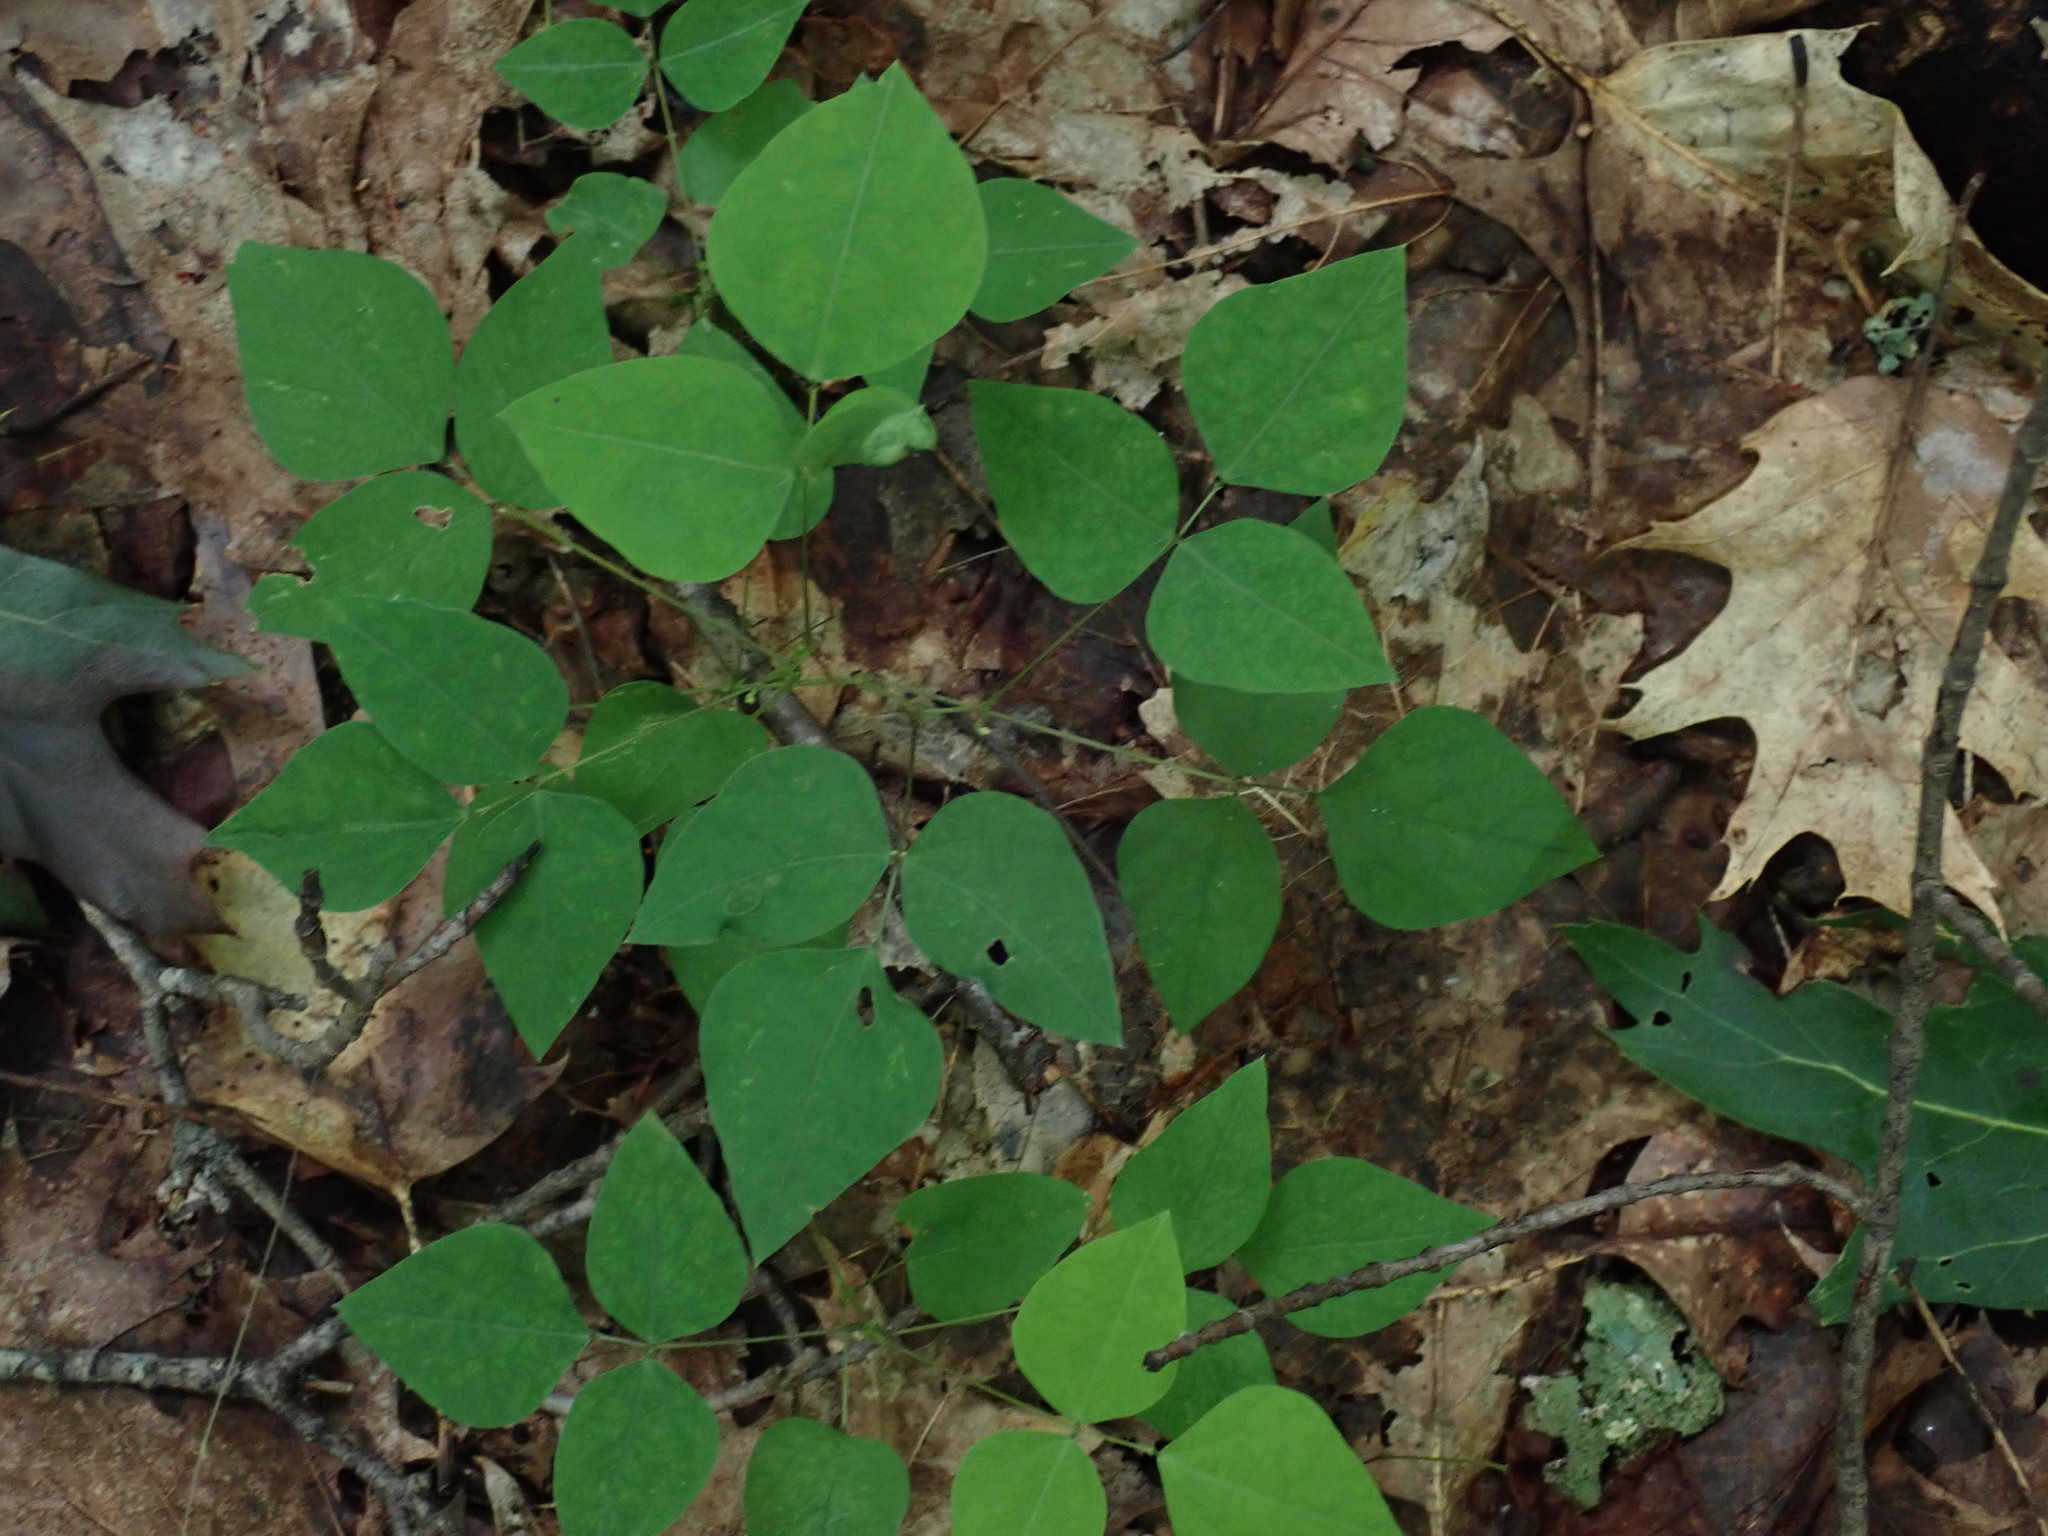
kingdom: Plantae
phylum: Tracheophyta
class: Magnoliopsida
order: Fabales
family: Fabaceae
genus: Amphicarpaea
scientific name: Amphicarpaea bracteata
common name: American hog peanut
